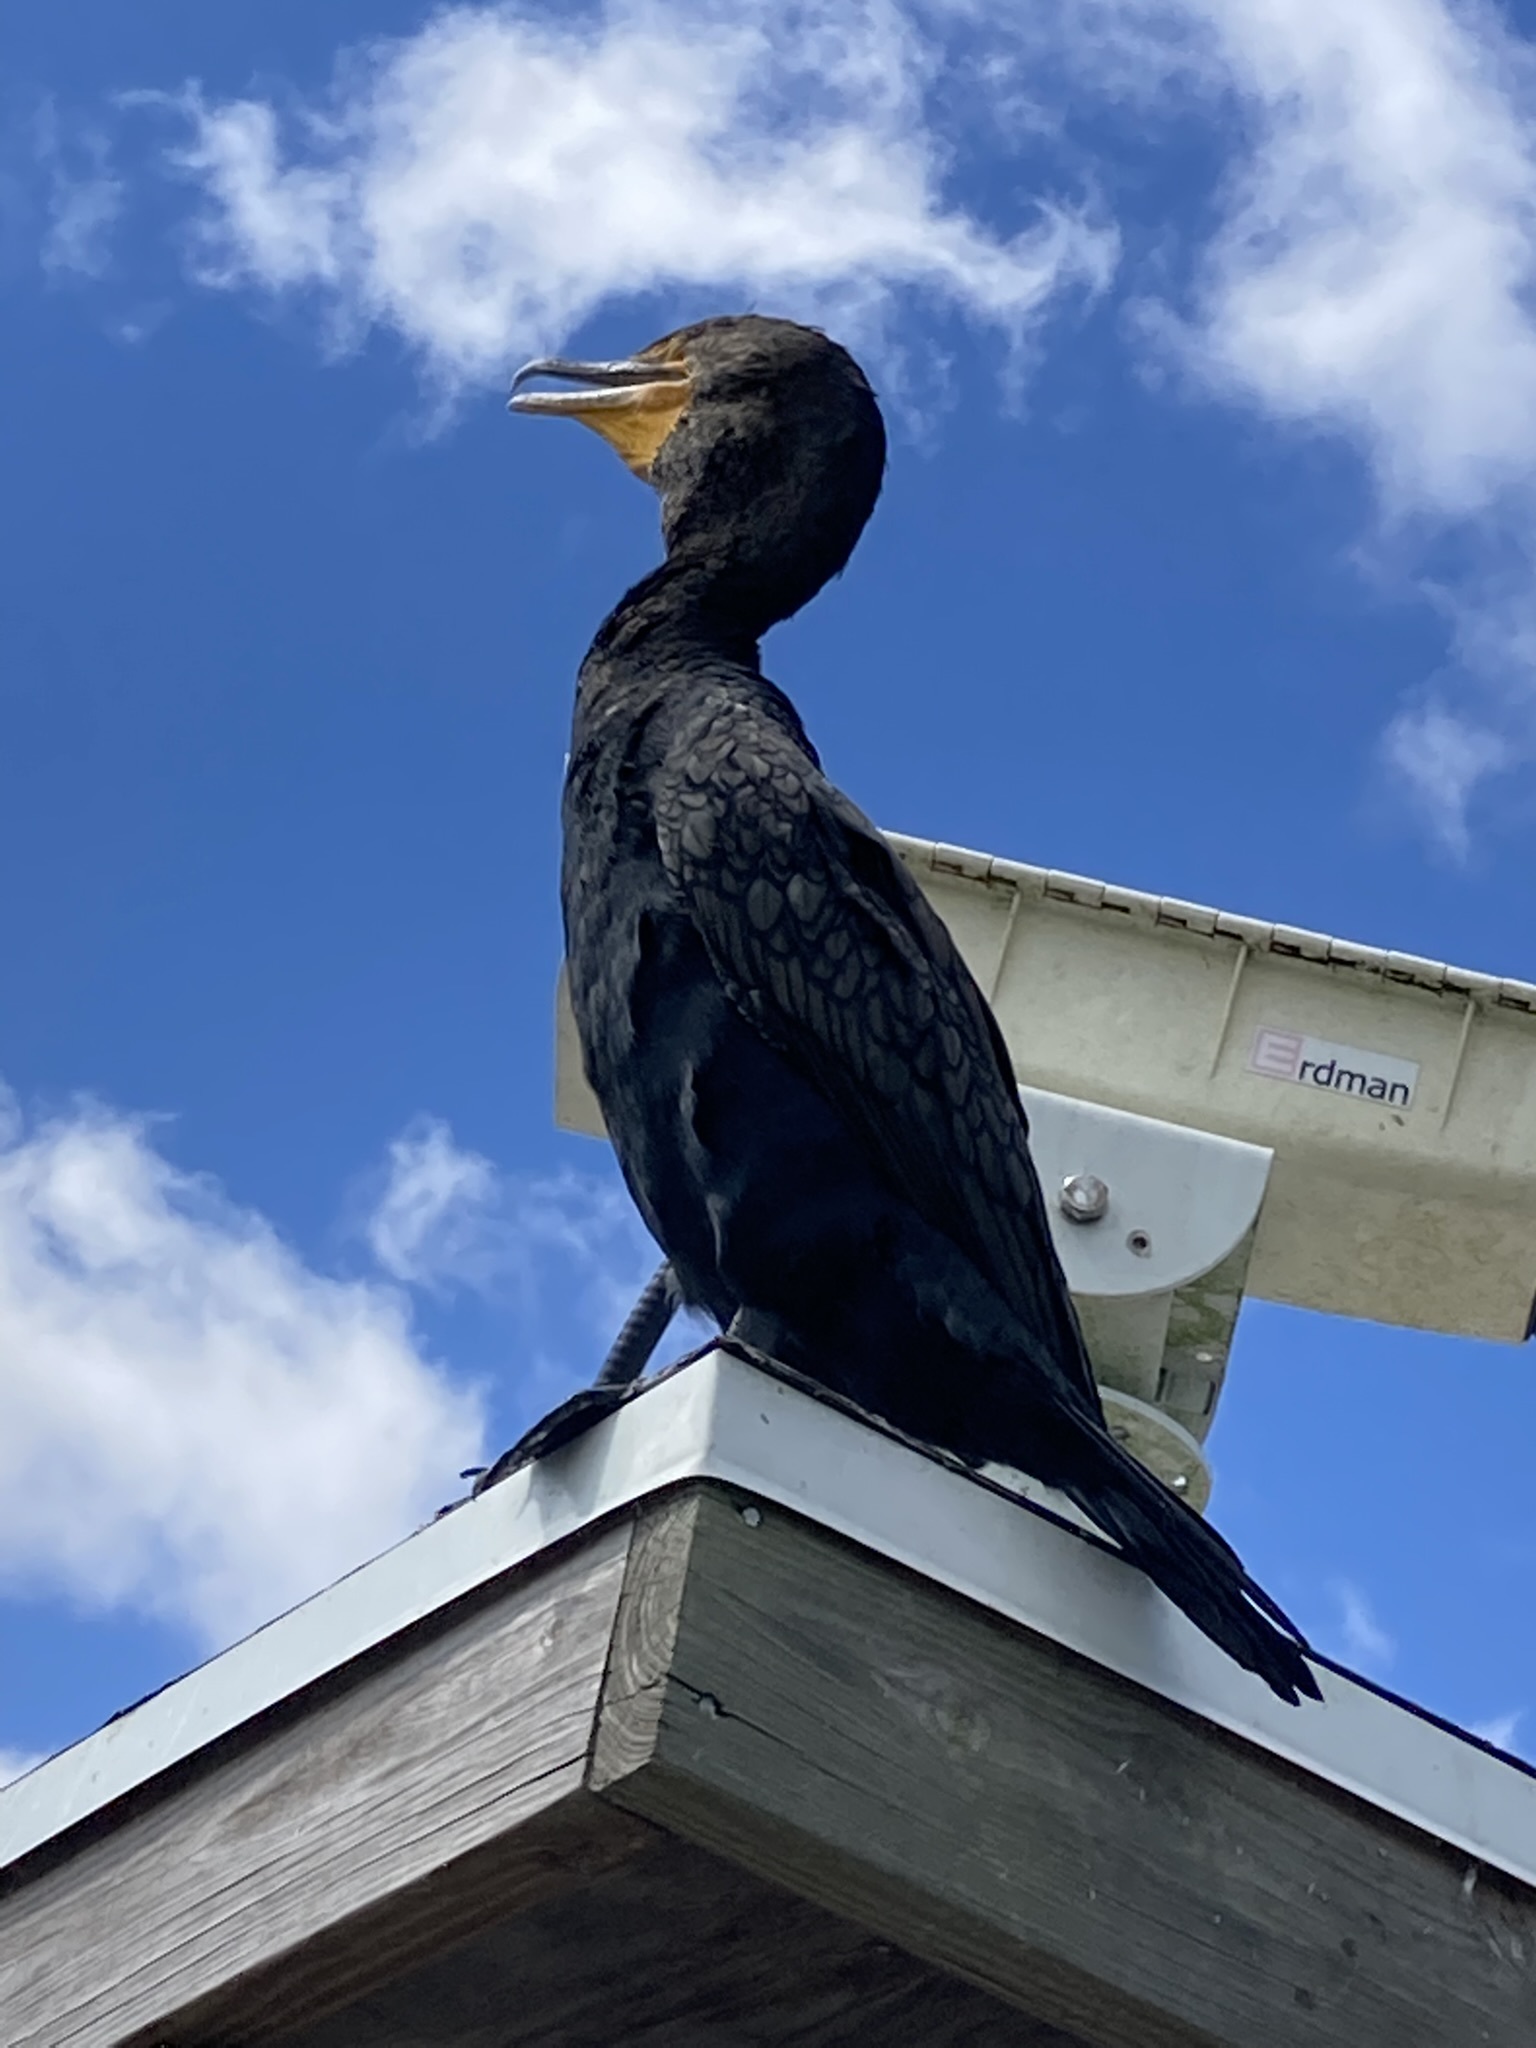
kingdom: Animalia
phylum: Chordata
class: Aves
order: Suliformes
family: Phalacrocoracidae
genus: Phalacrocorax
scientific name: Phalacrocorax auritus
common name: Double-crested cormorant
